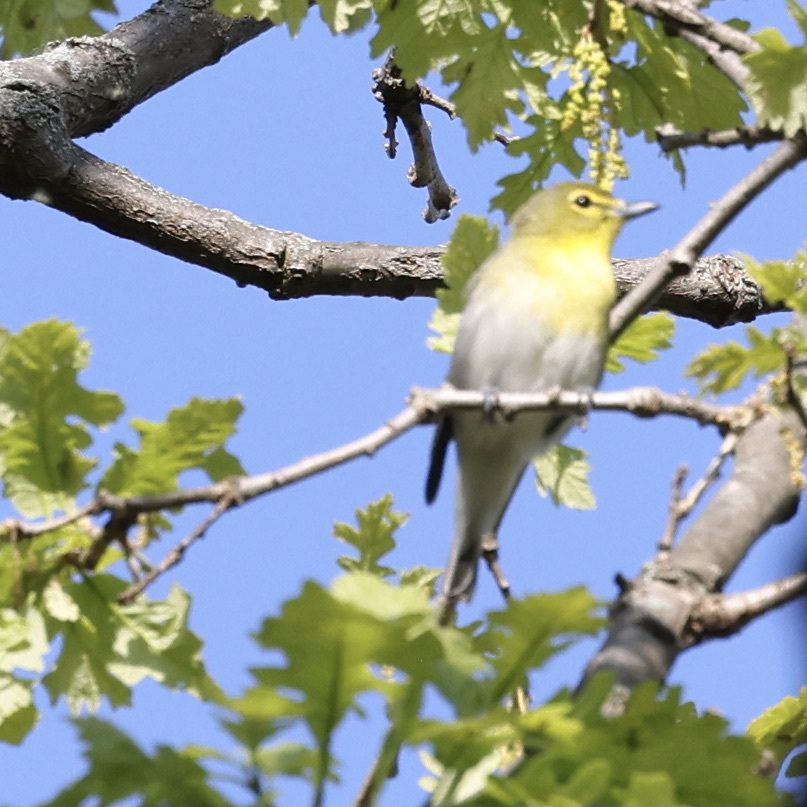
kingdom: Animalia
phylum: Chordata
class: Aves
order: Passeriformes
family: Vireonidae
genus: Vireo
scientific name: Vireo flavifrons
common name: Yellow-throated vireo
